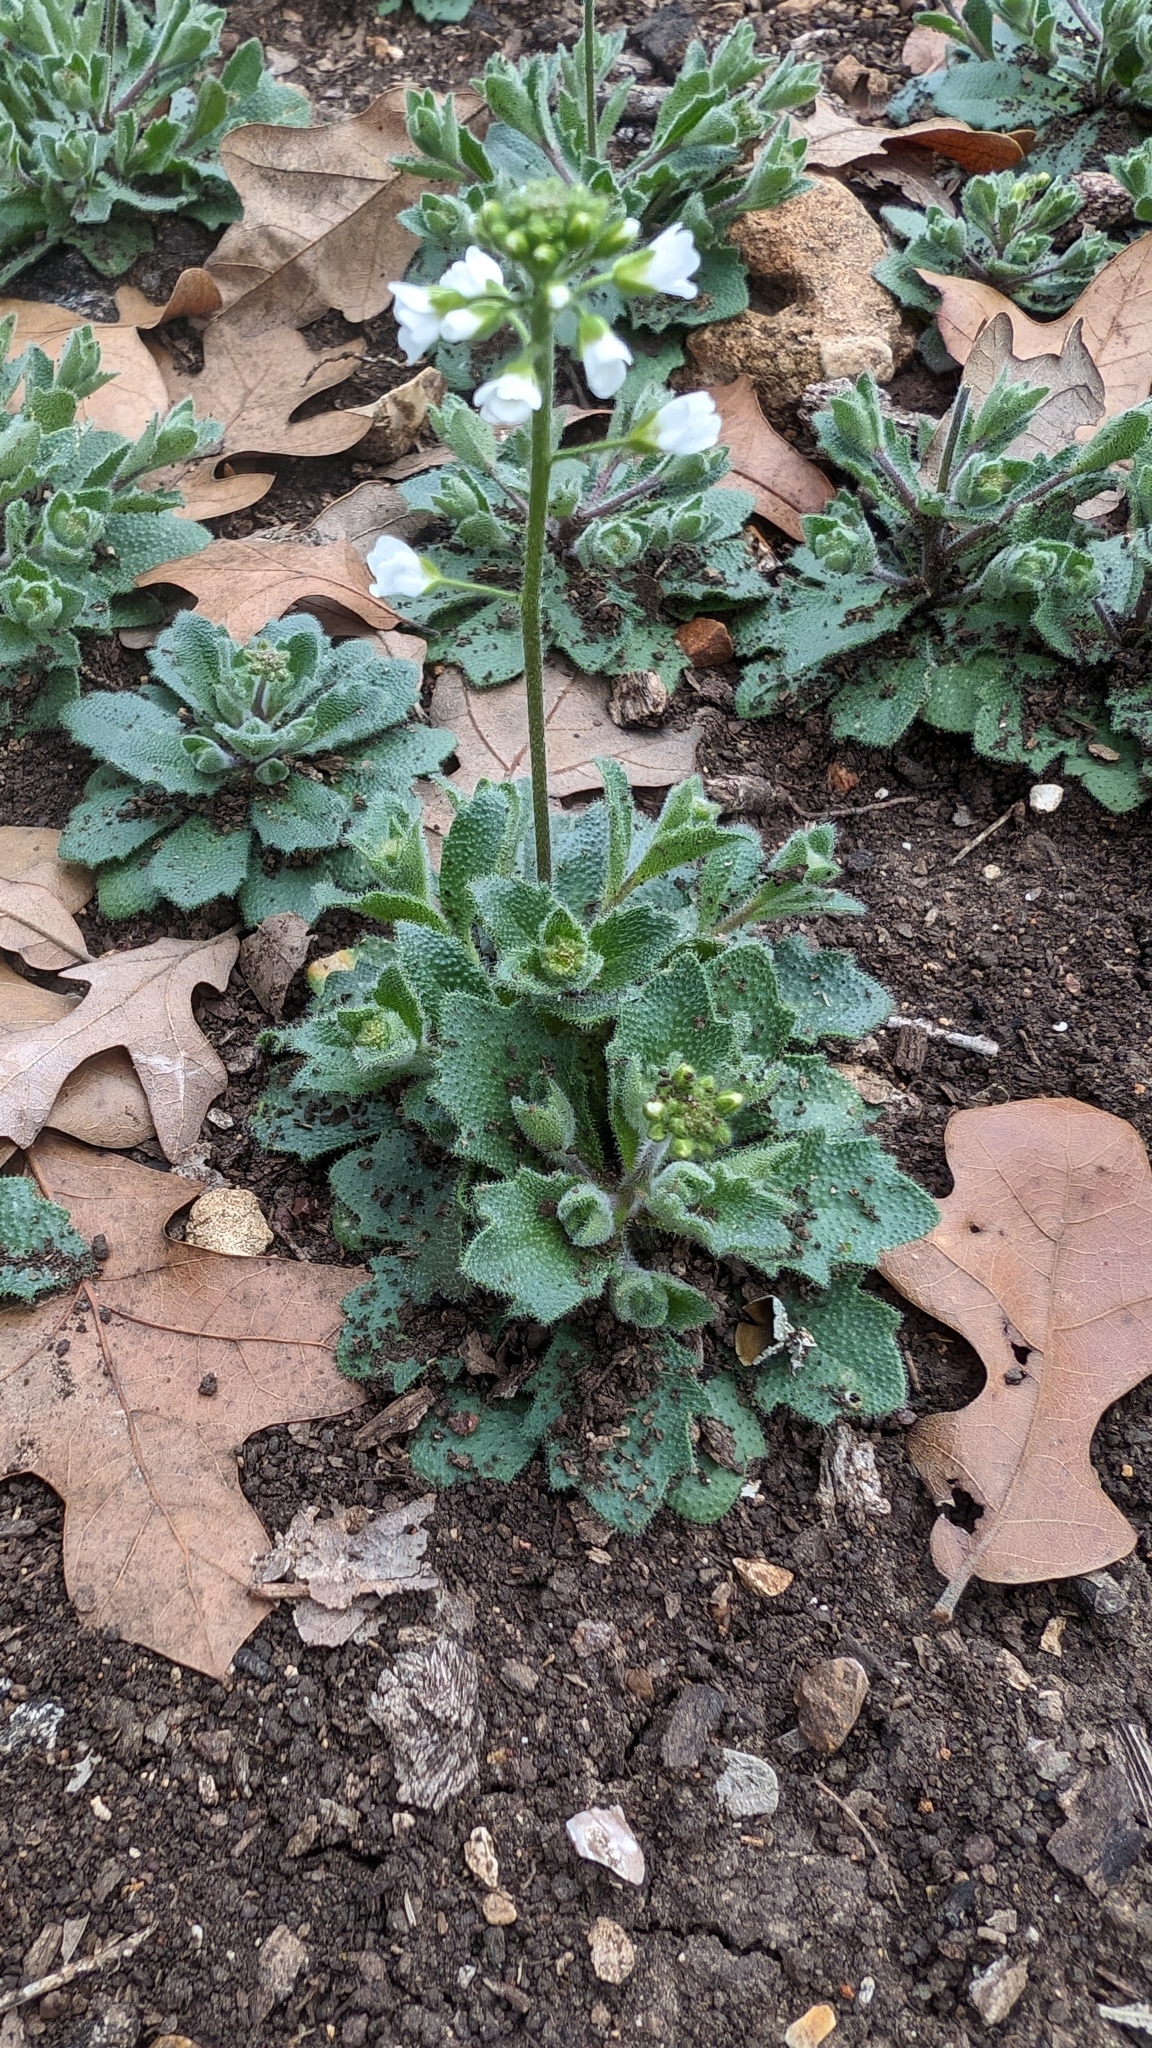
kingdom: Plantae
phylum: Tracheophyta
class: Magnoliopsida
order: Brassicales
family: Brassicaceae
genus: Tomostima
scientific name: Tomostima cuneifolia
